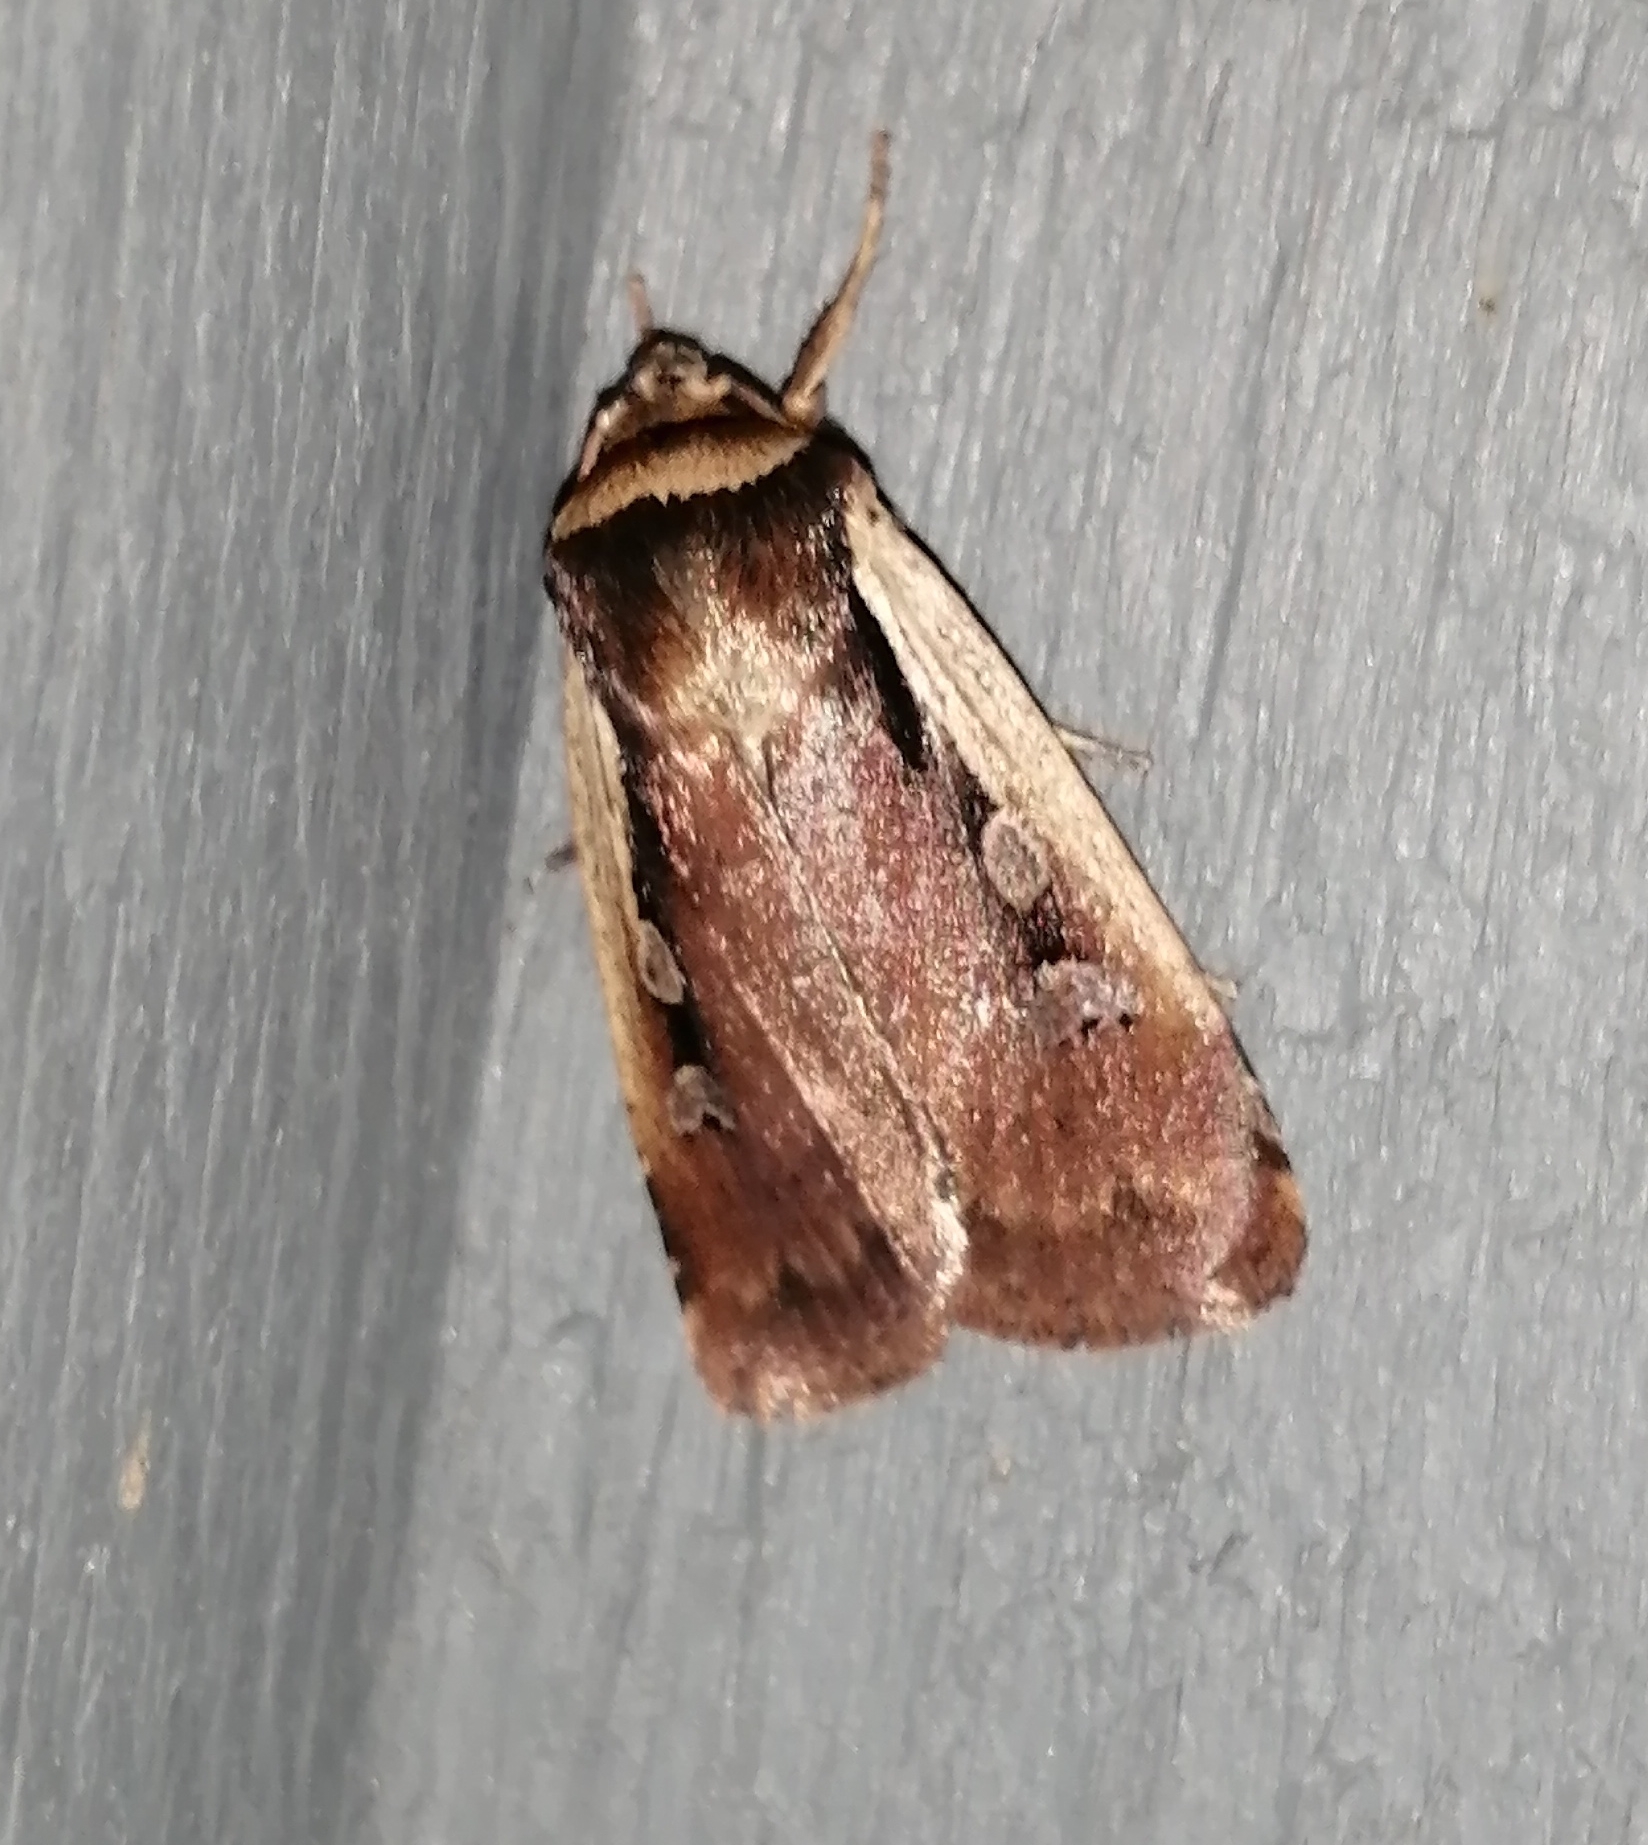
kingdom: Animalia
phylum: Arthropoda
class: Insecta
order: Lepidoptera
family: Noctuidae
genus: Ochropleura
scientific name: Ochropleura implecta
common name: Flame-shouldered dart
